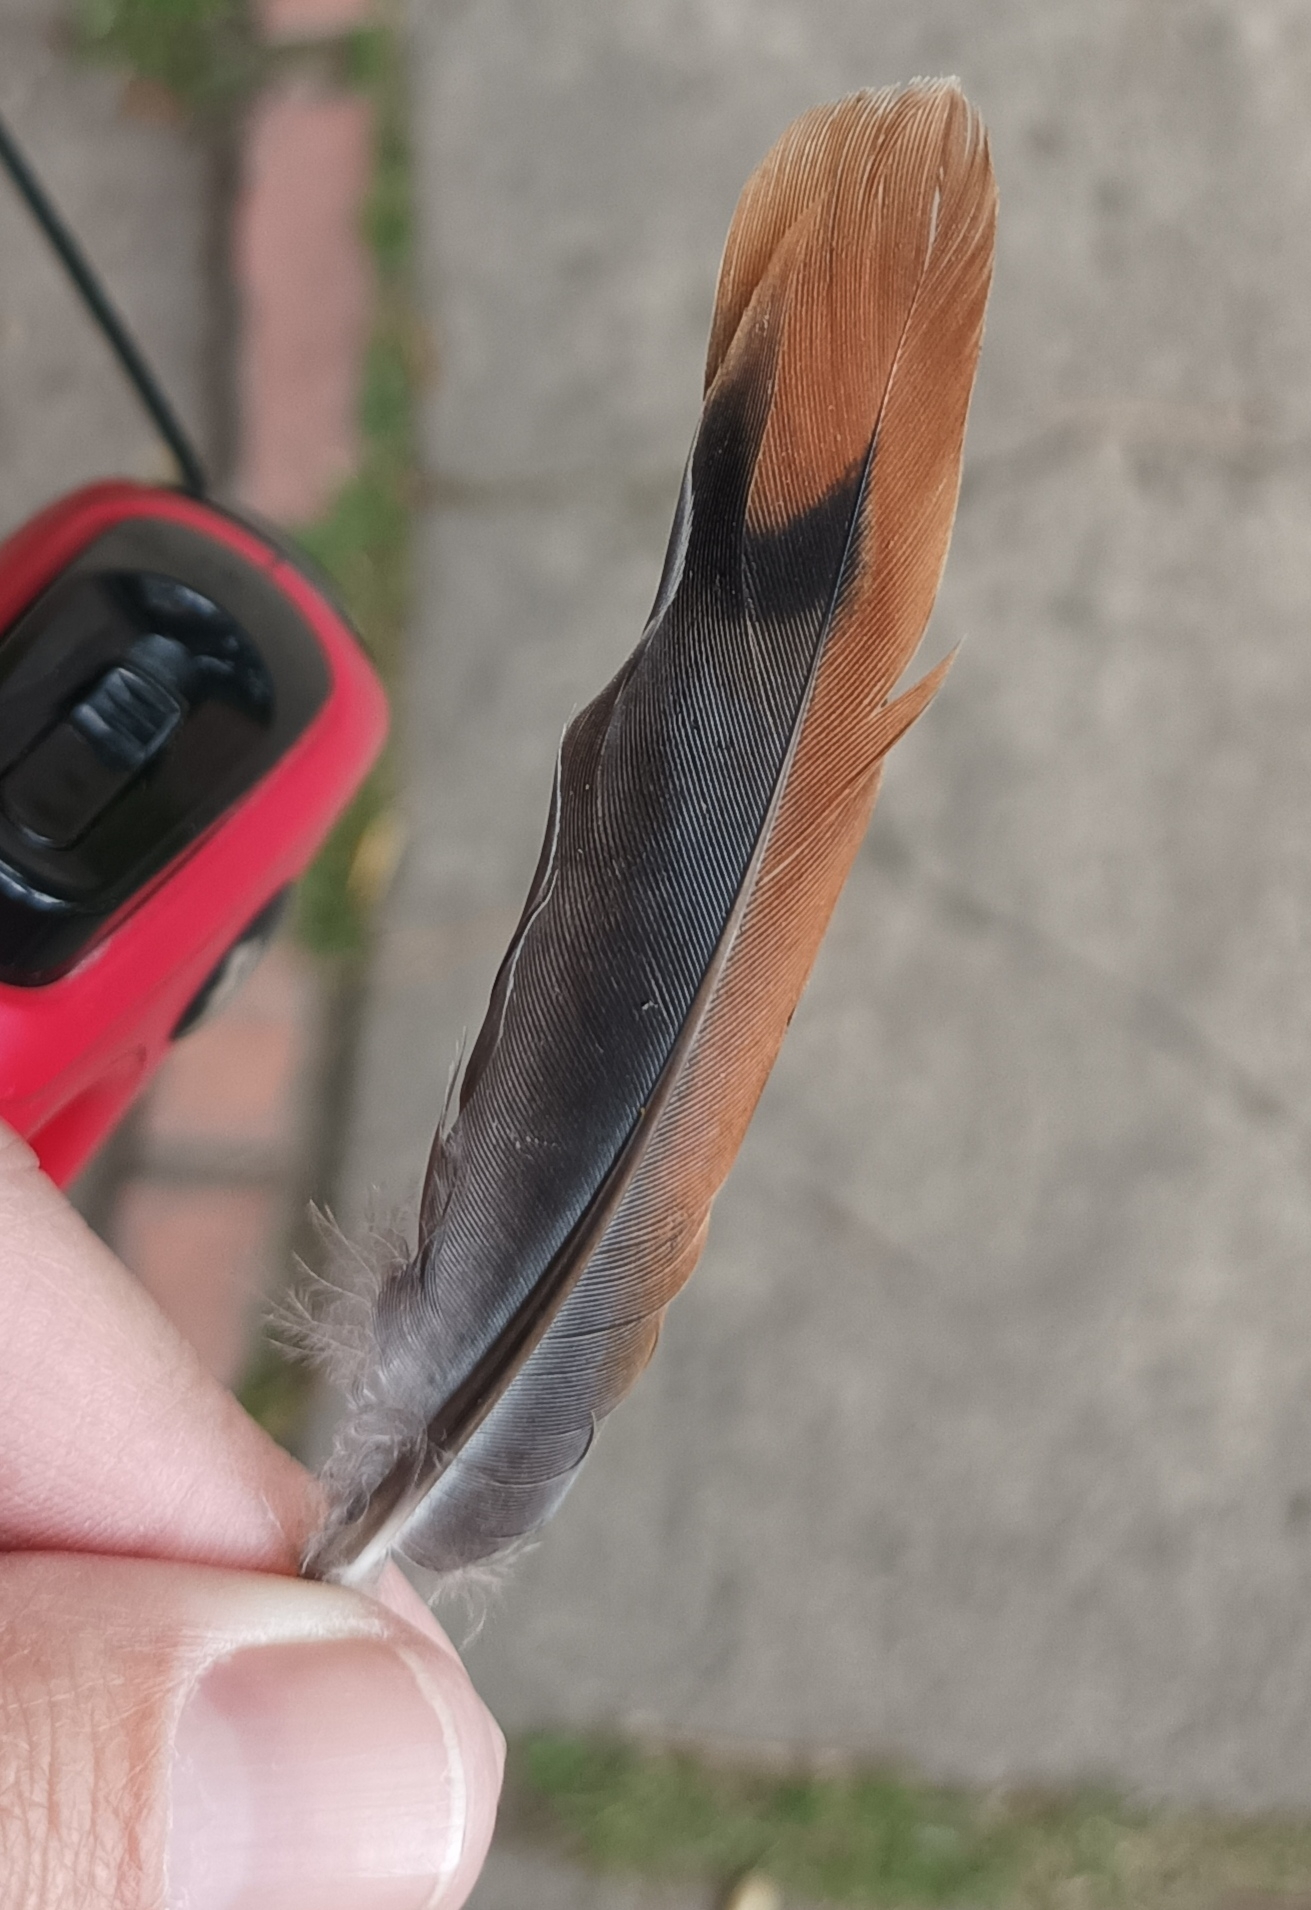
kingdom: Animalia
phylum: Chordata
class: Aves
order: Columbiformes
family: Columbidae
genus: Zenaida
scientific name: Zenaida auriculata
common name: Eared dove
